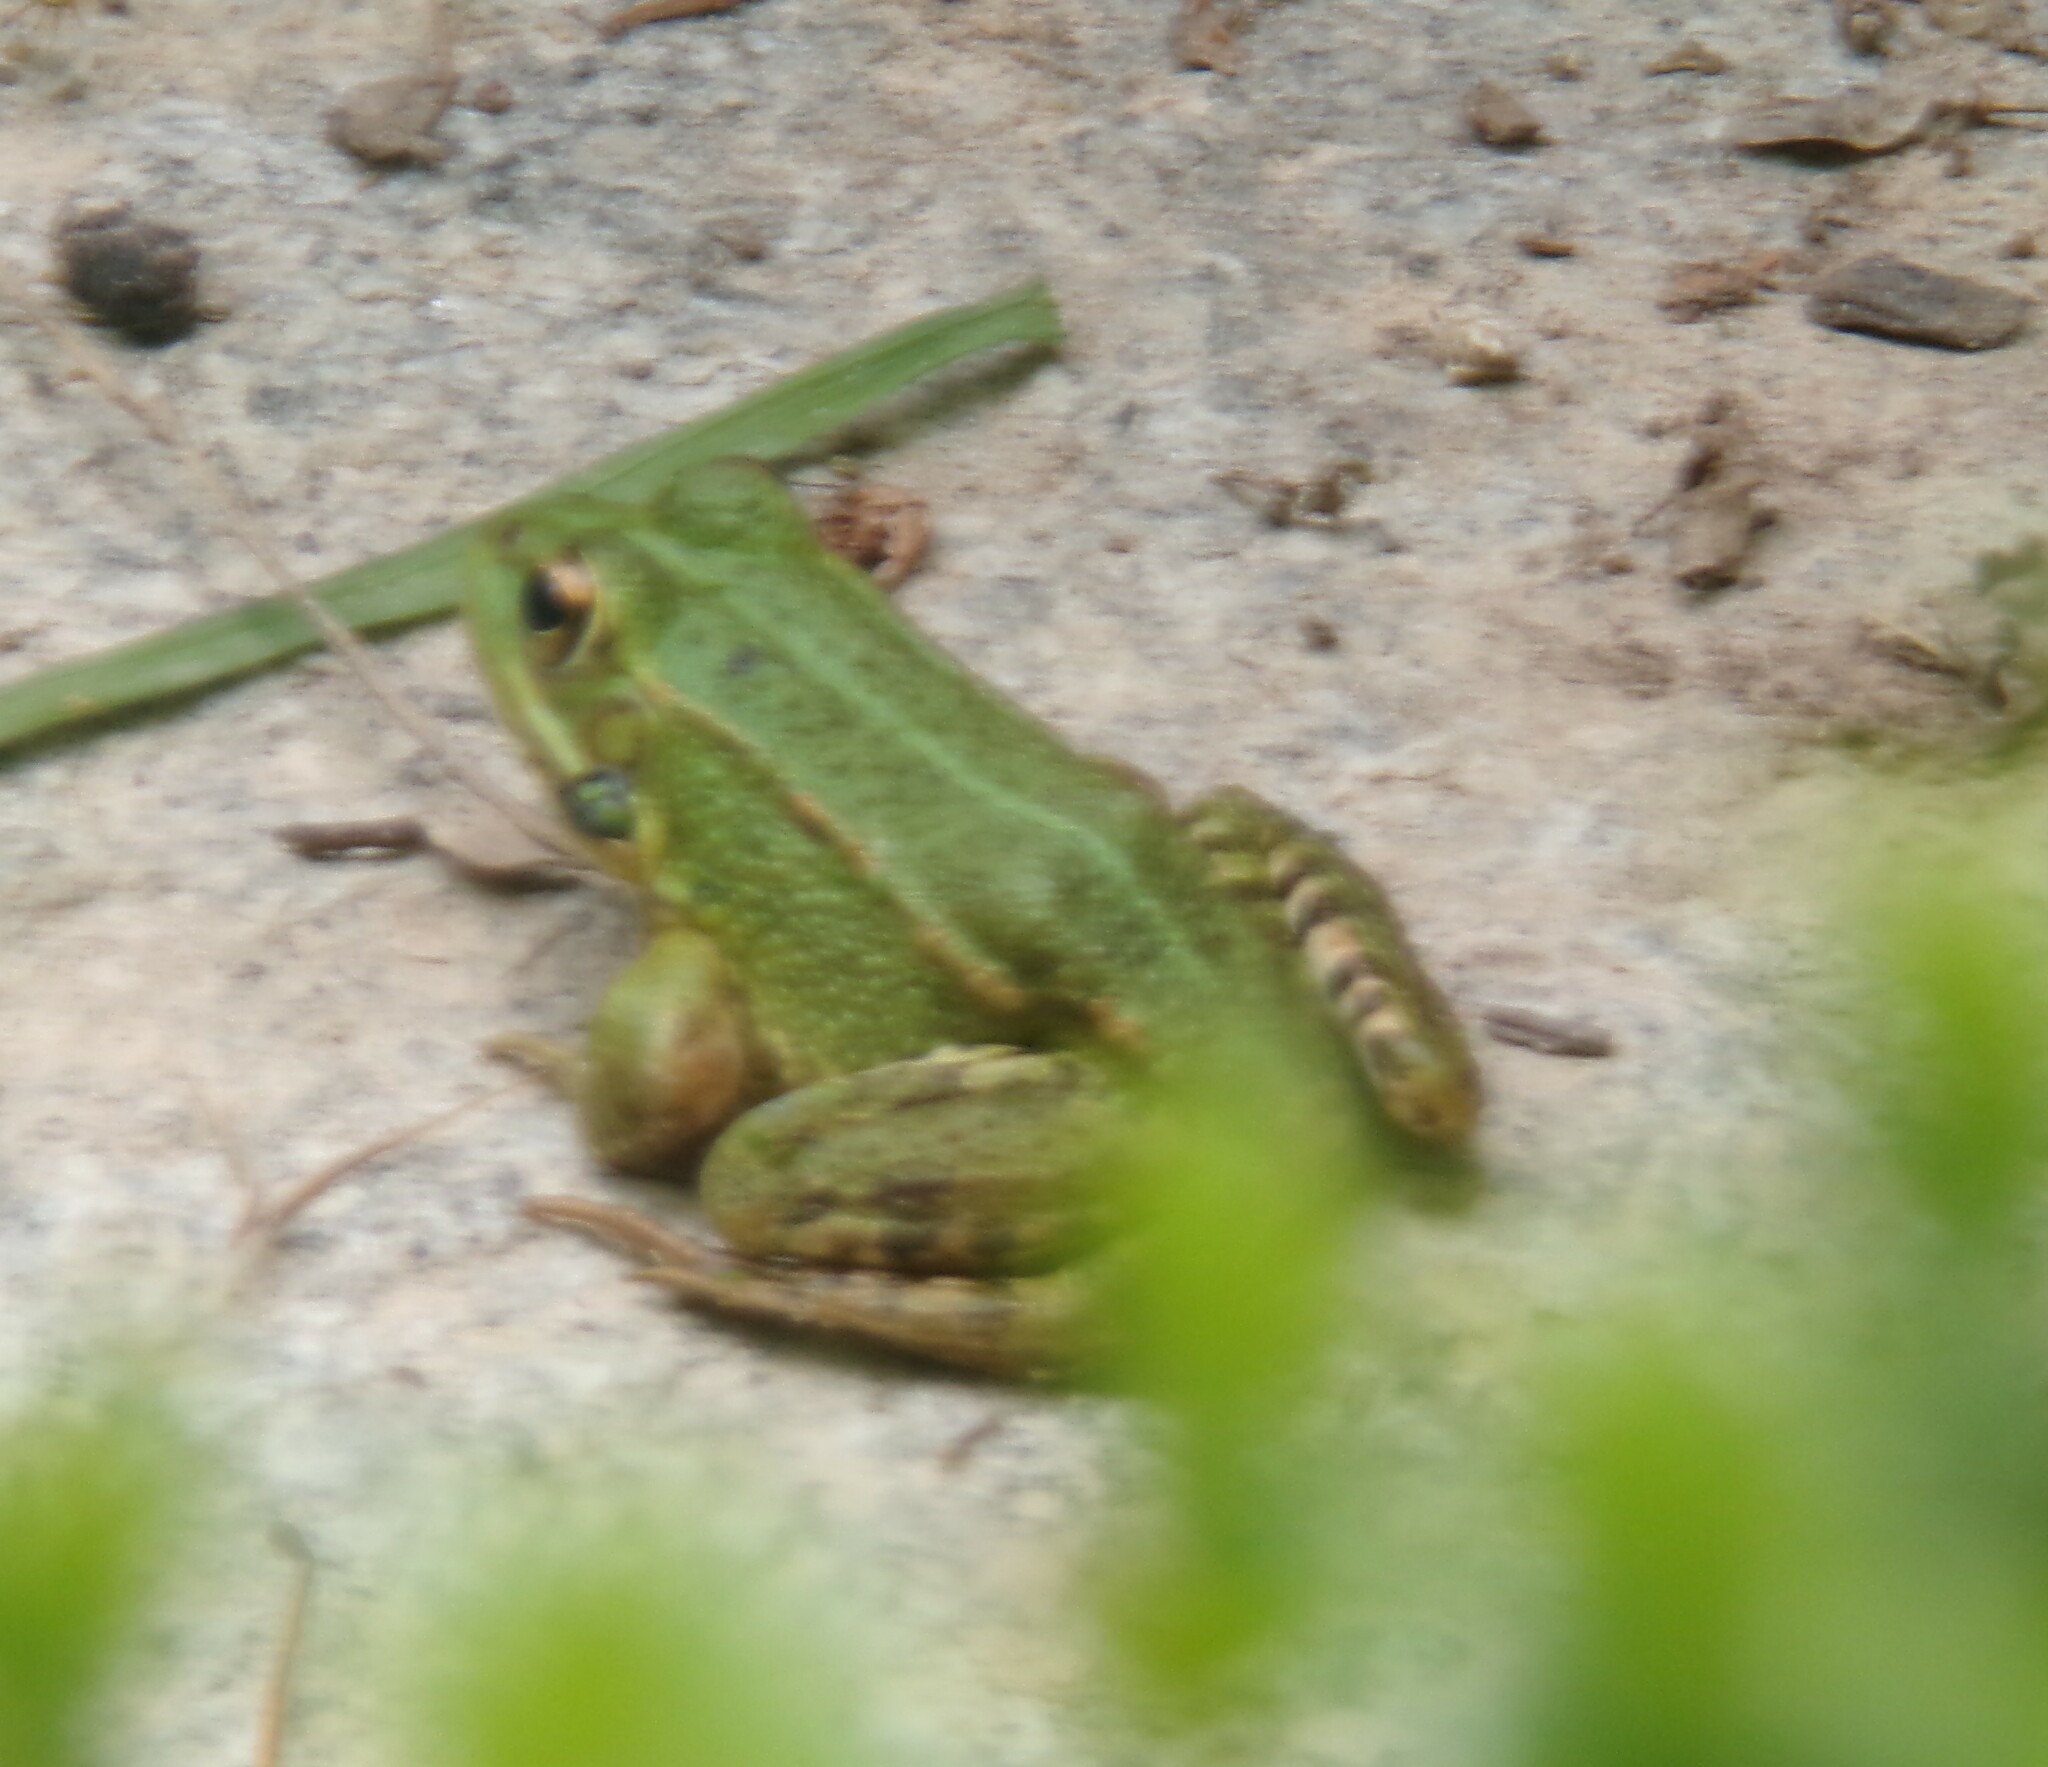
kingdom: Animalia
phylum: Chordata
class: Amphibia
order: Anura
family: Ranidae
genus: Pelophylax
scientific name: Pelophylax perezi
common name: Perez's frog
